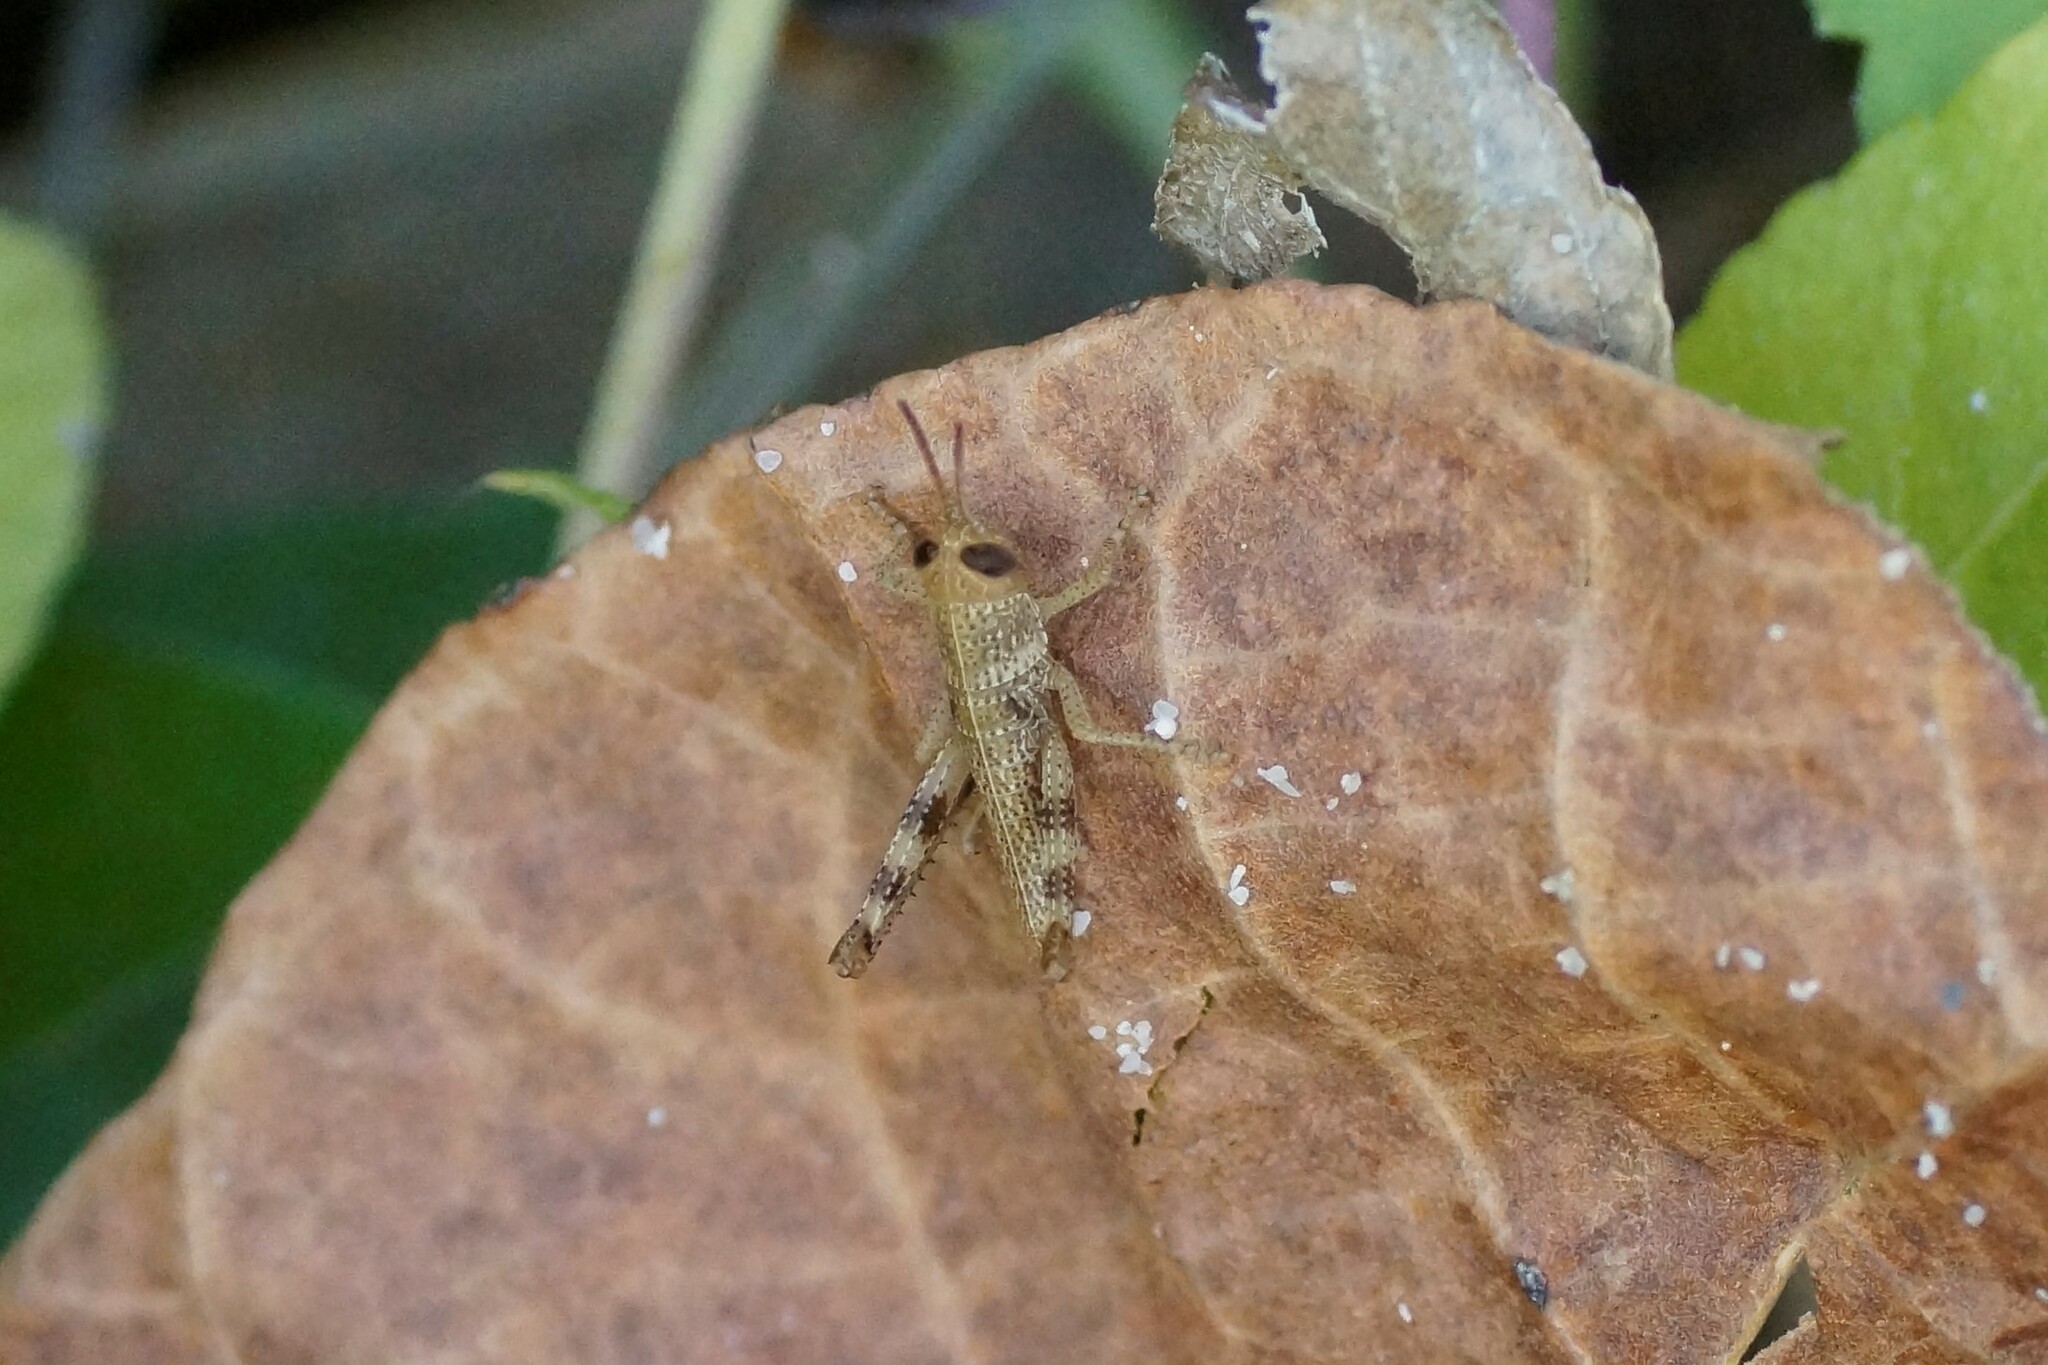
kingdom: Animalia
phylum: Arthropoda
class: Insecta
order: Orthoptera
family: Acrididae
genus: Valanga
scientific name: Valanga irregularis
